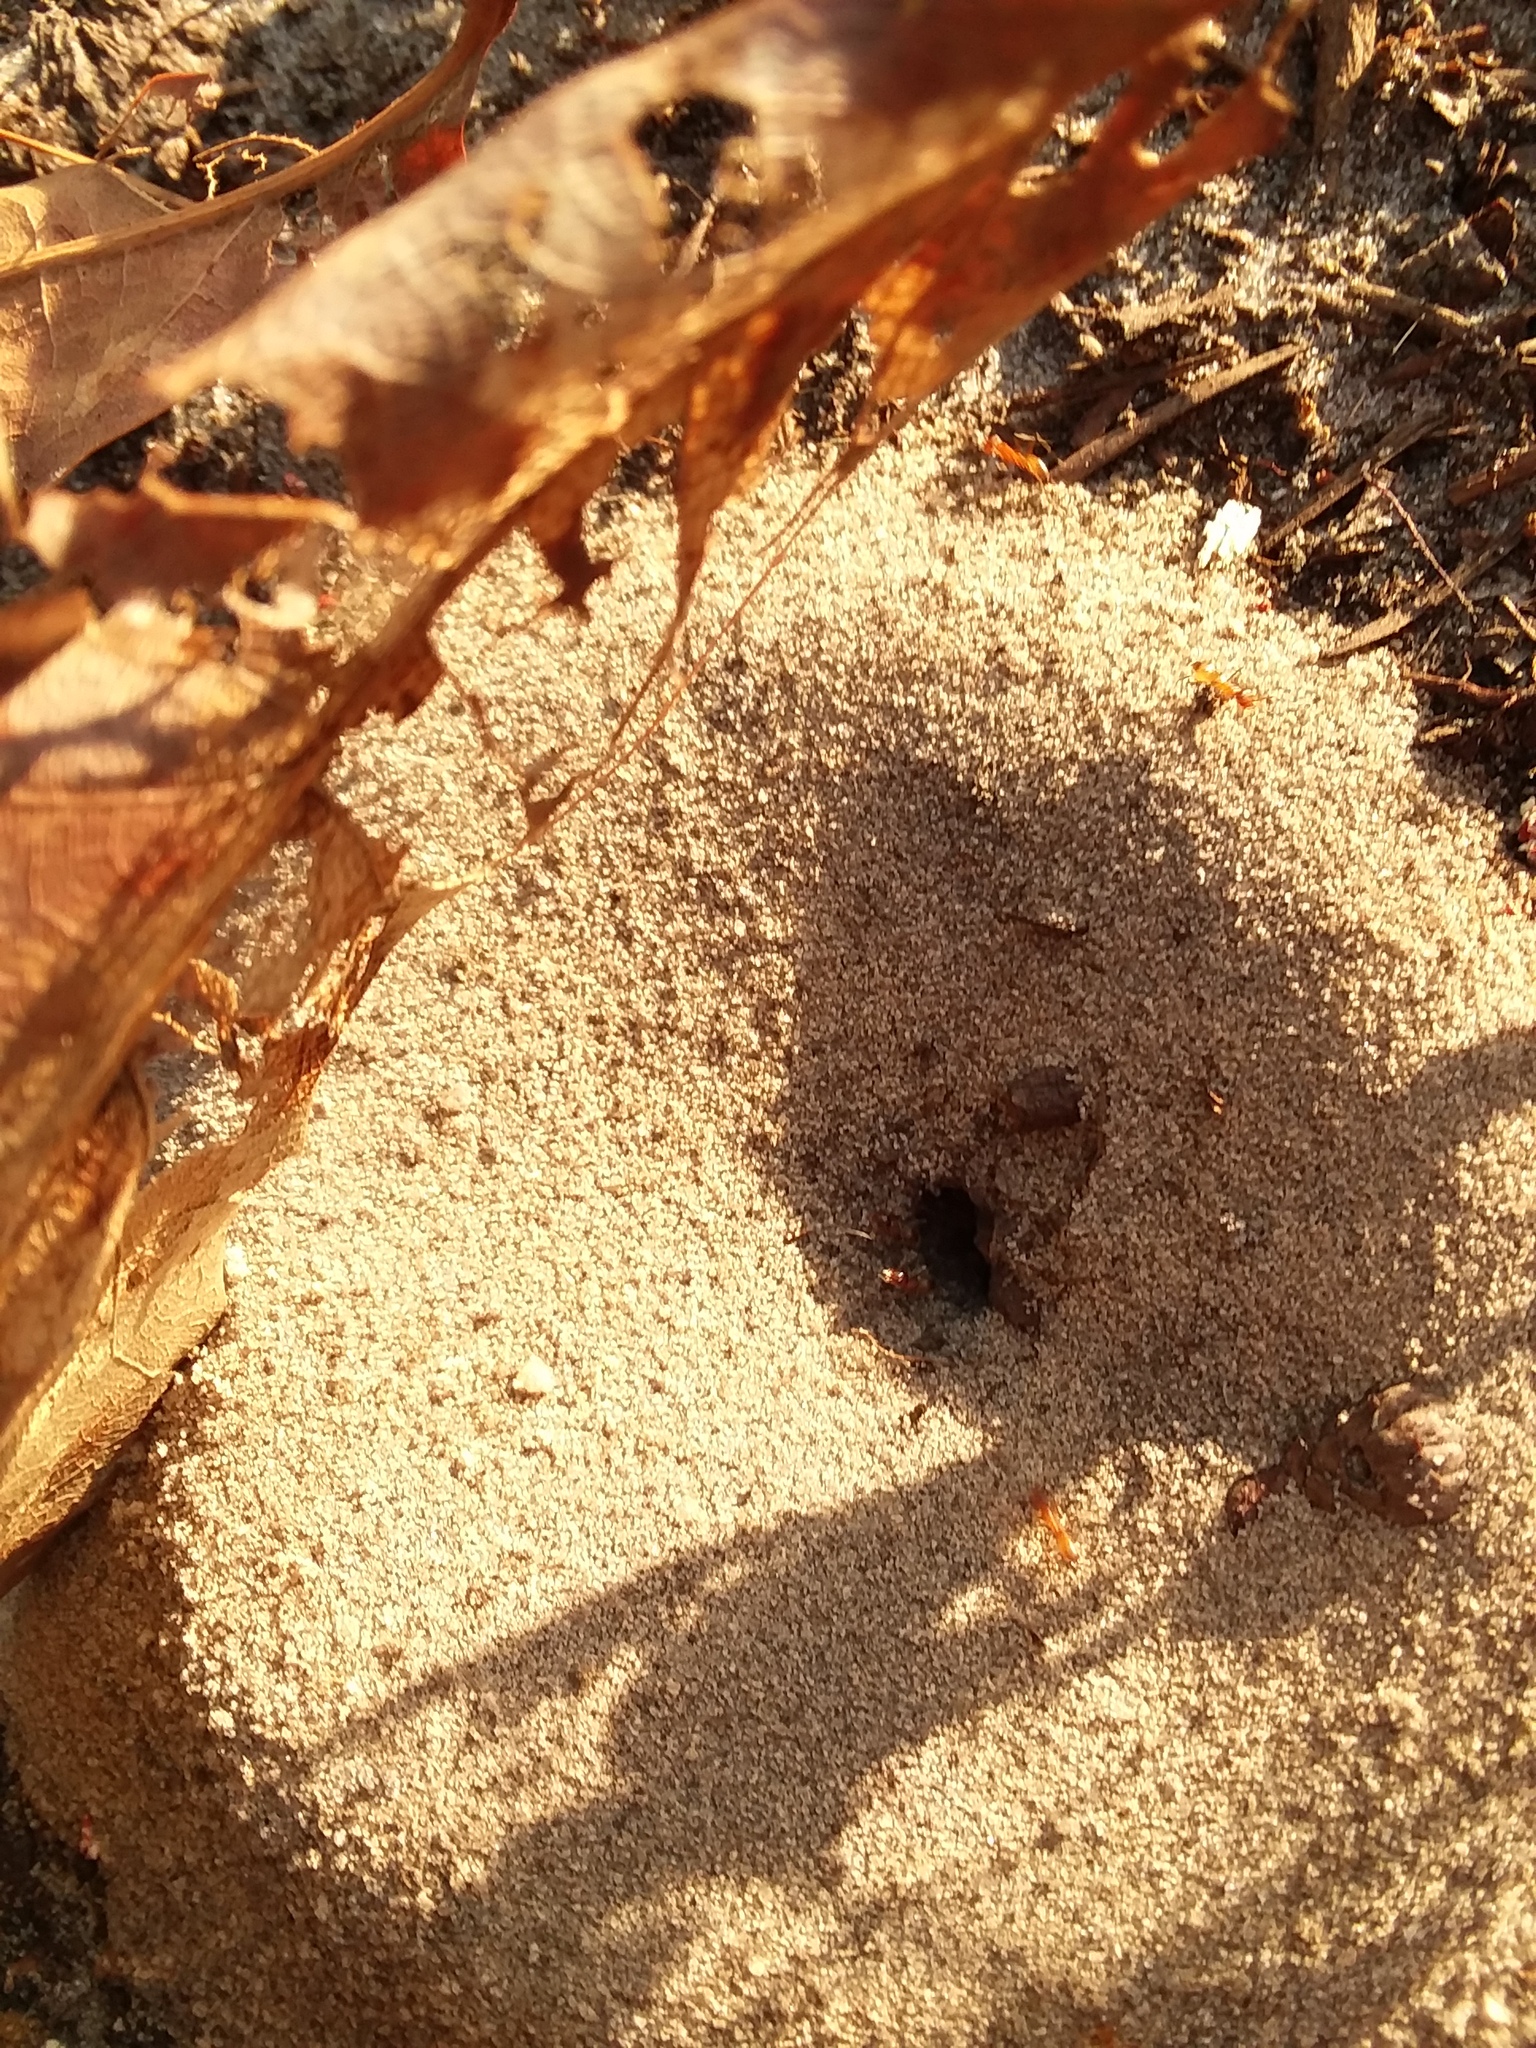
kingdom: Animalia
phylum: Arthropoda
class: Insecta
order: Hymenoptera
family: Formicidae
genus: Dorymyrmex
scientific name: Dorymyrmex bureni
